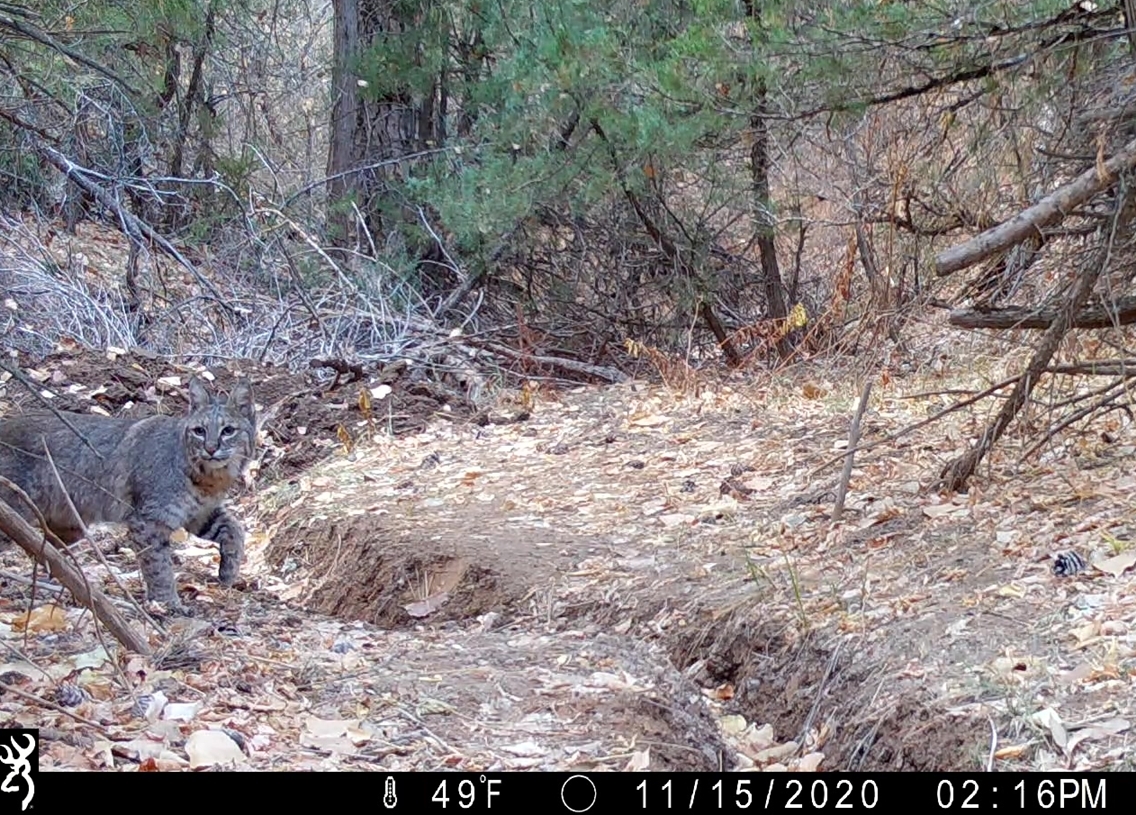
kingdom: Animalia
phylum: Chordata
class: Mammalia
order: Carnivora
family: Felidae
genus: Lynx
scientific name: Lynx rufus
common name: Bobcat
